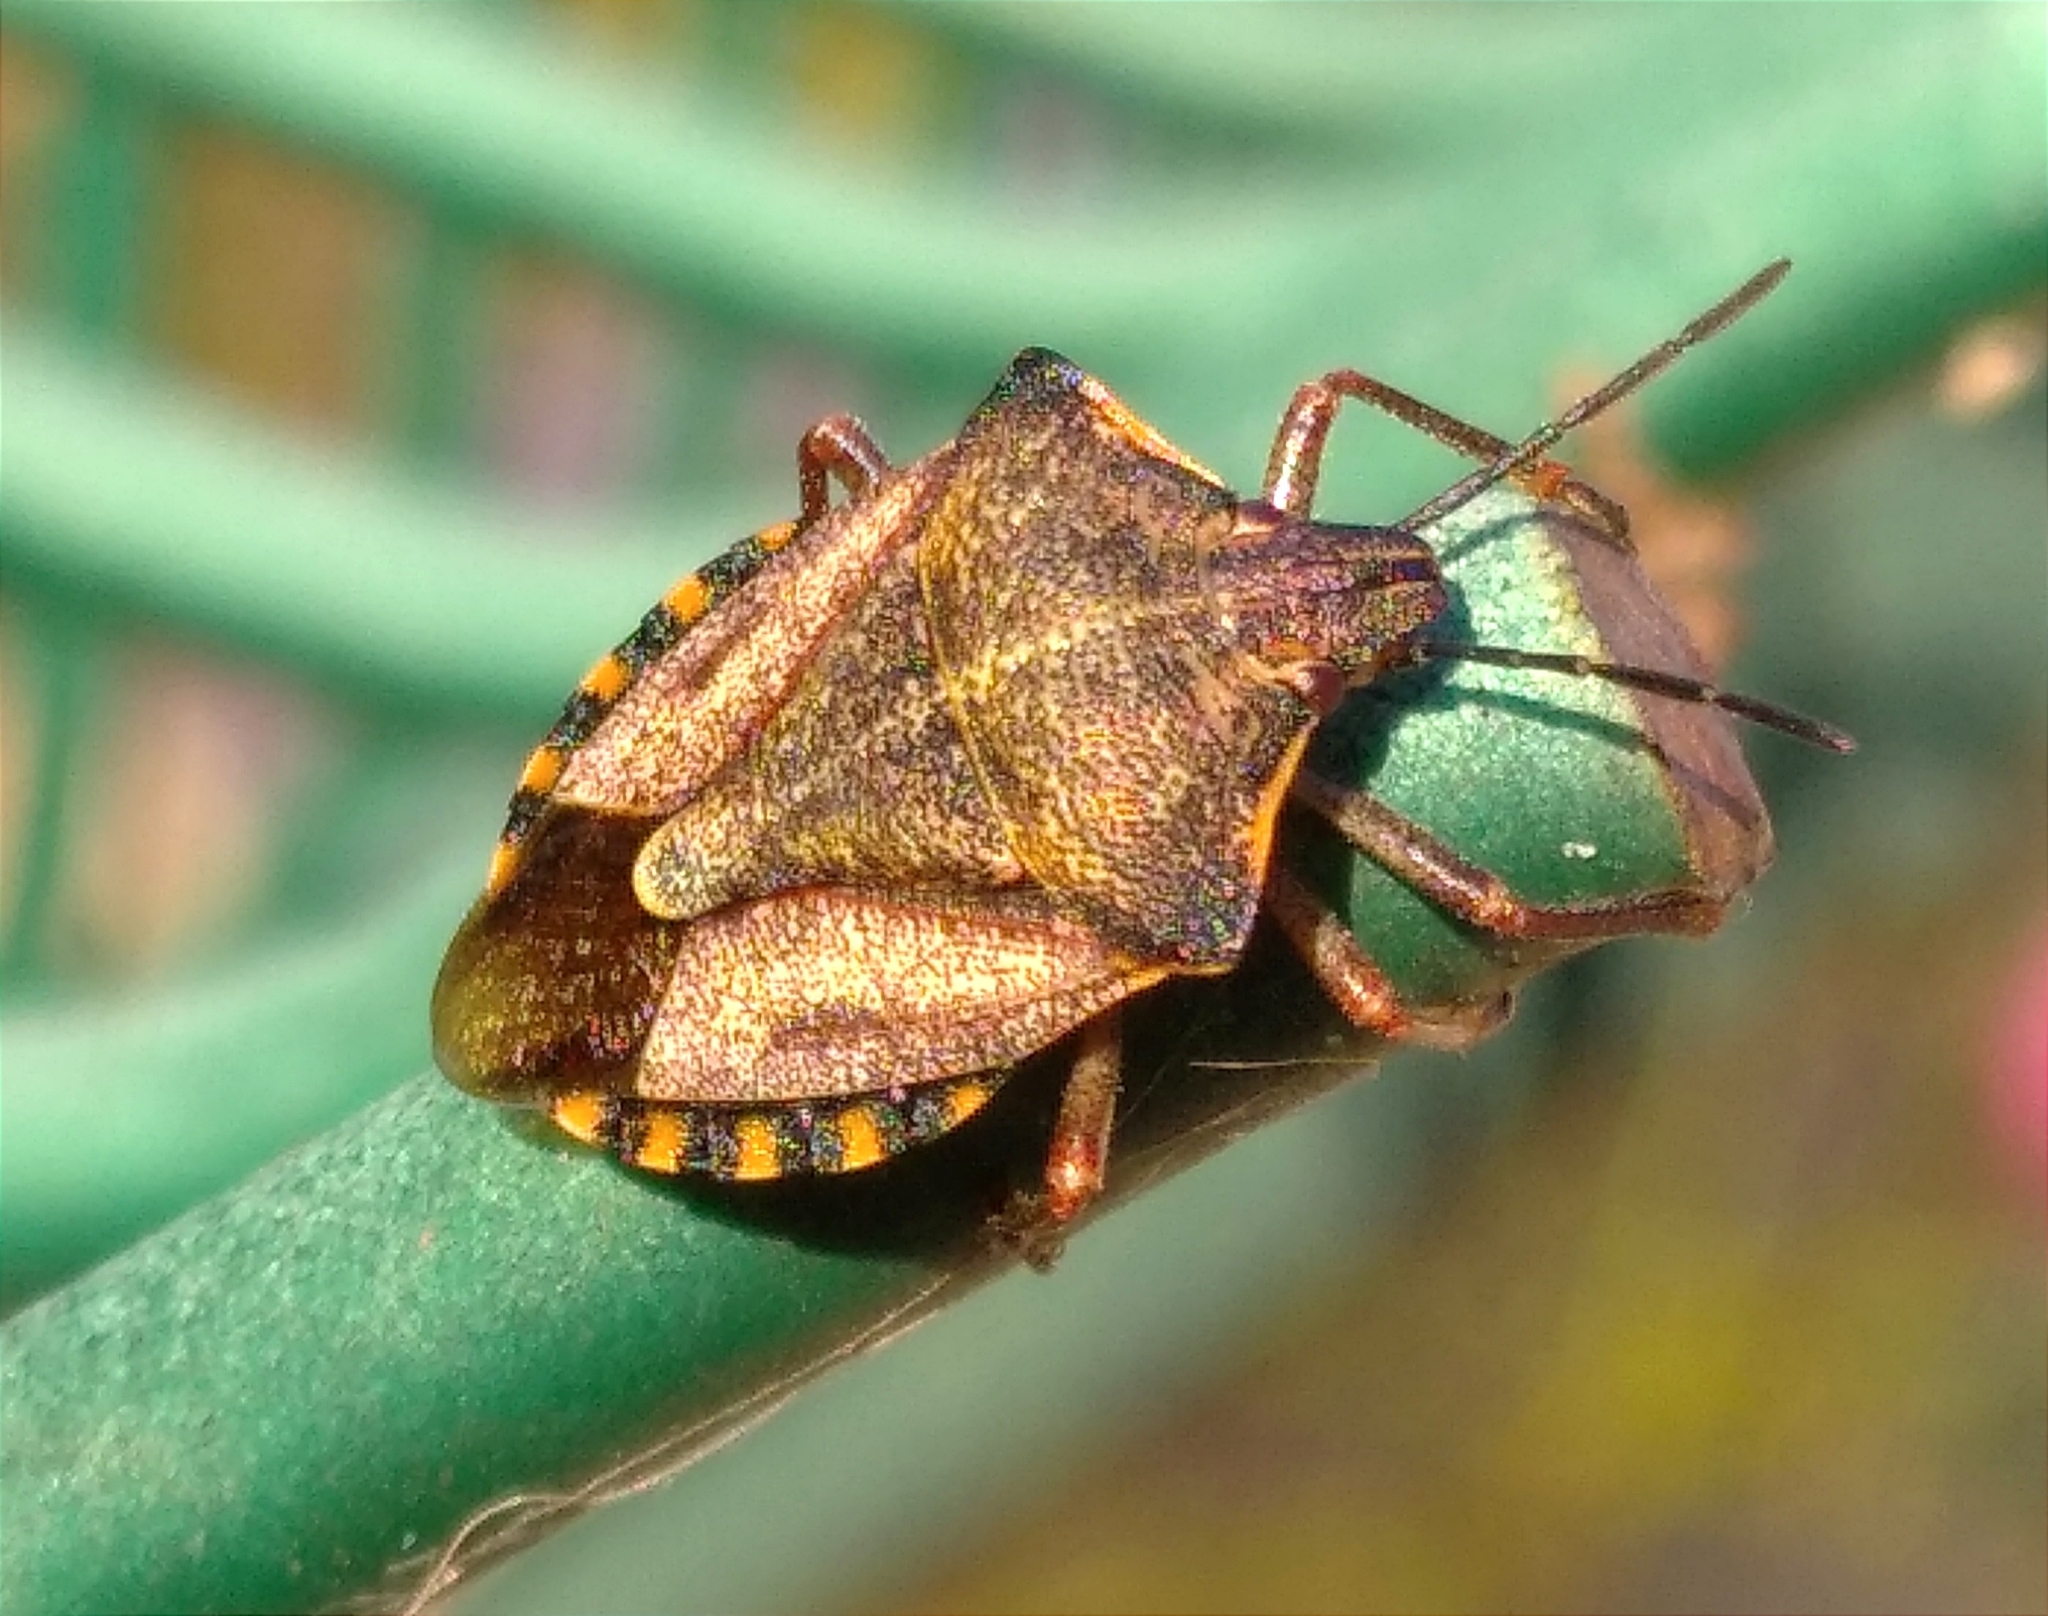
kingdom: Animalia
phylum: Arthropoda
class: Insecta
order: Hemiptera
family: Pentatomidae
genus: Carpocoris
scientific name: Carpocoris mediterraneus
